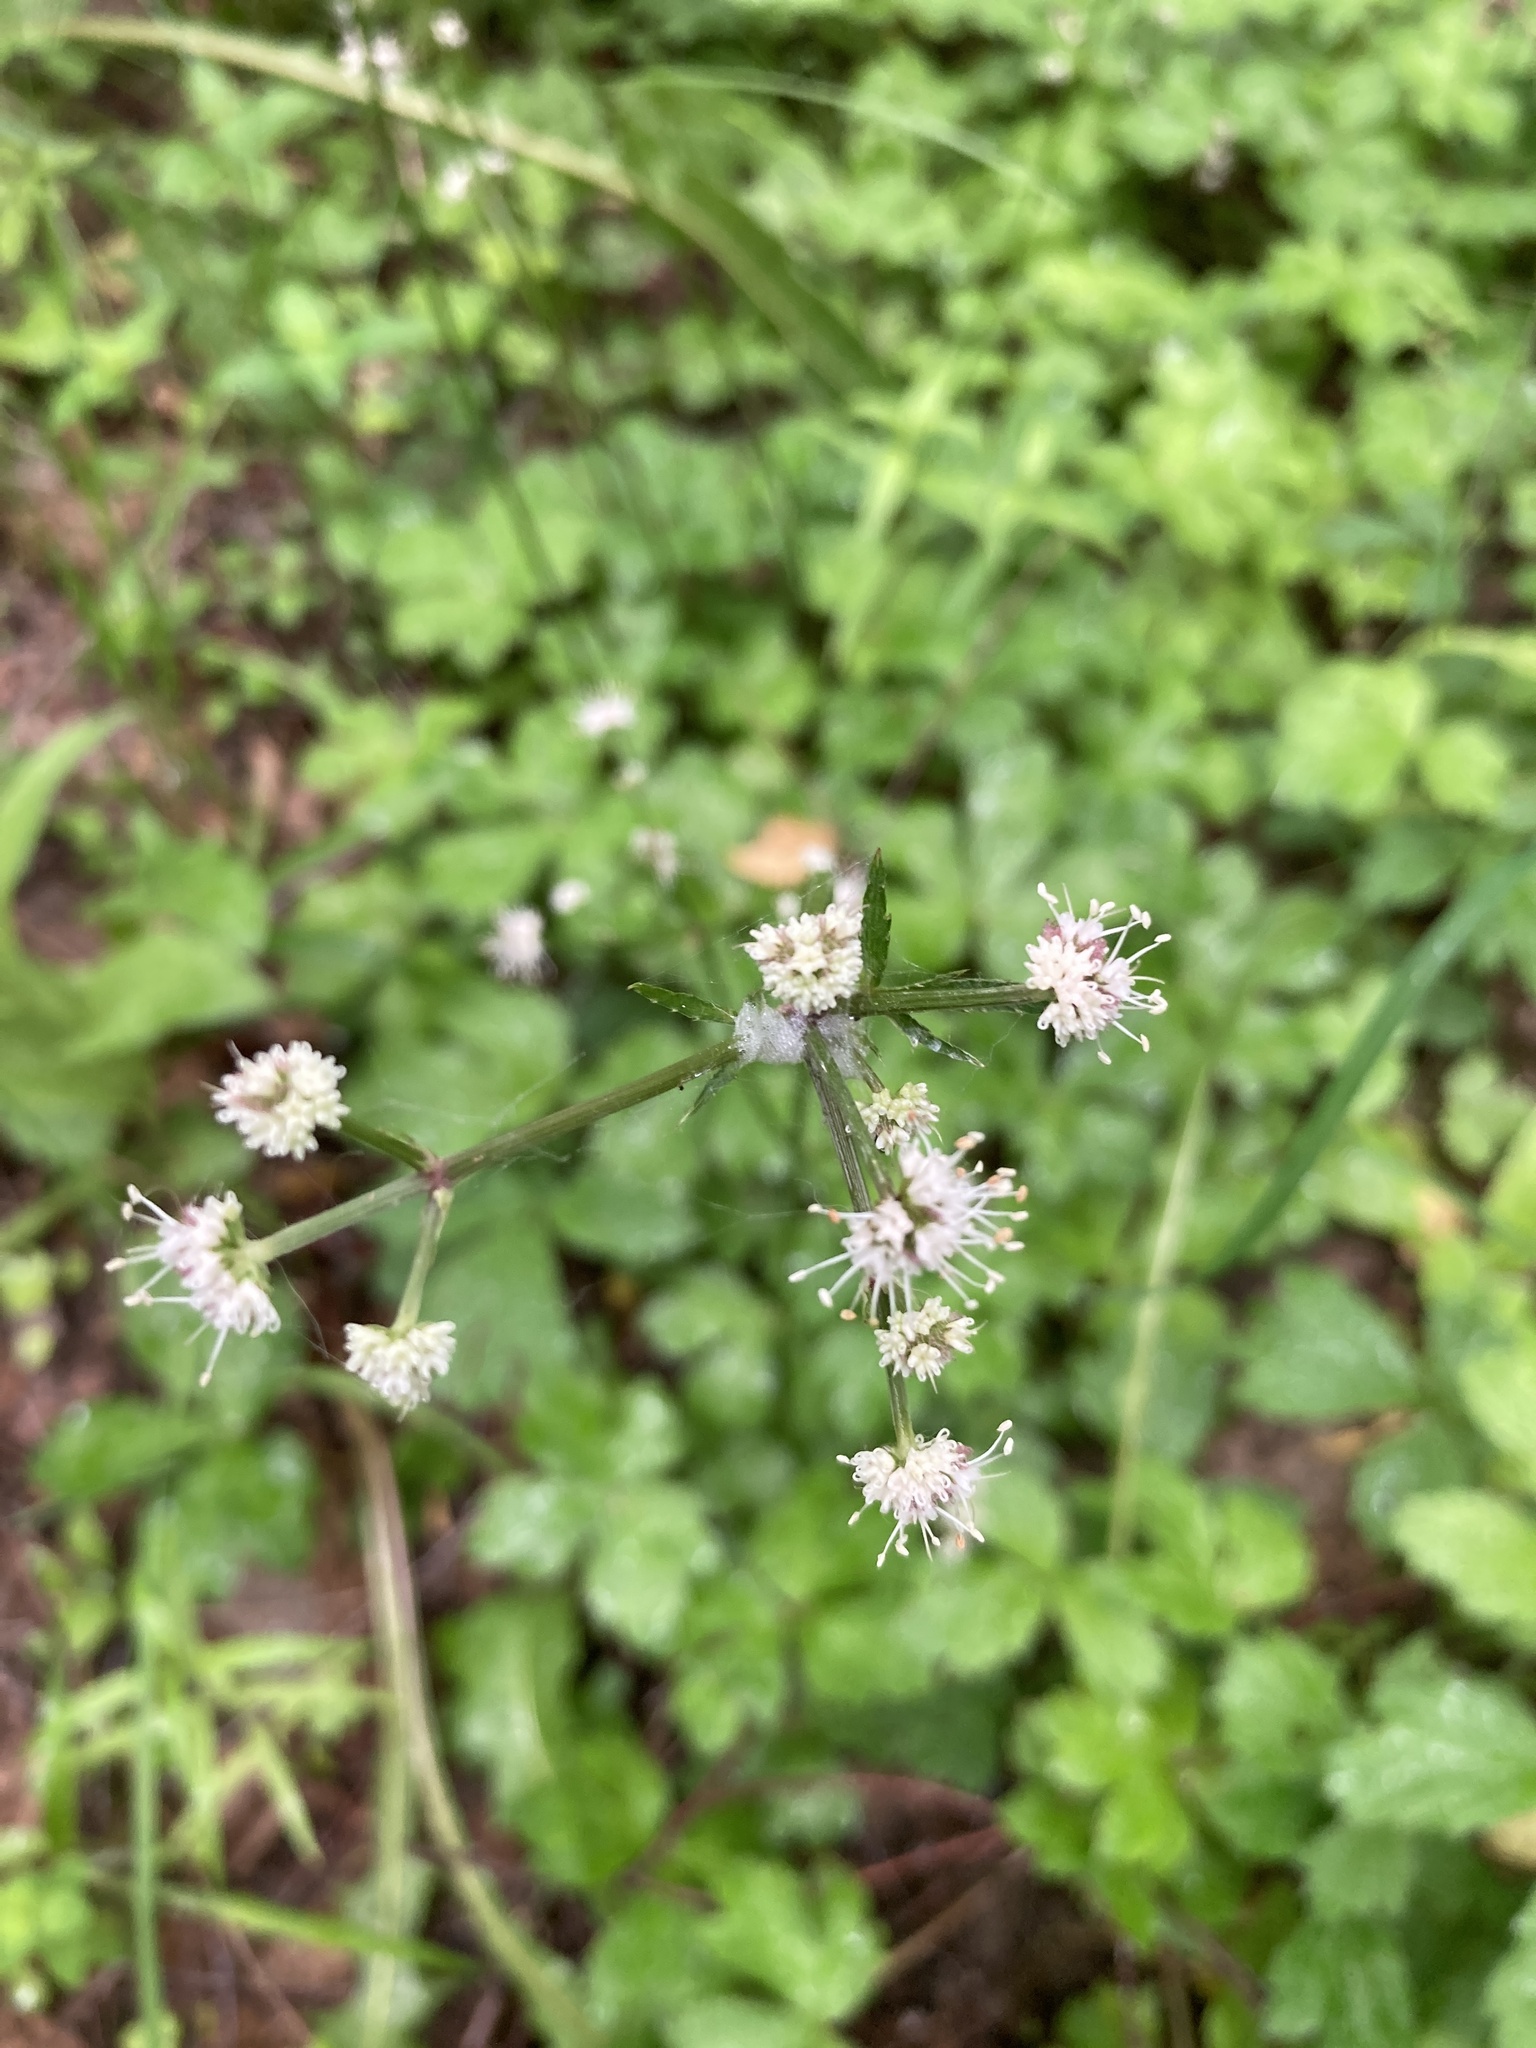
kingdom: Plantae
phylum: Tracheophyta
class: Magnoliopsida
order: Apiales
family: Apiaceae
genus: Sanicula
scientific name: Sanicula europaea
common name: Sanicle
